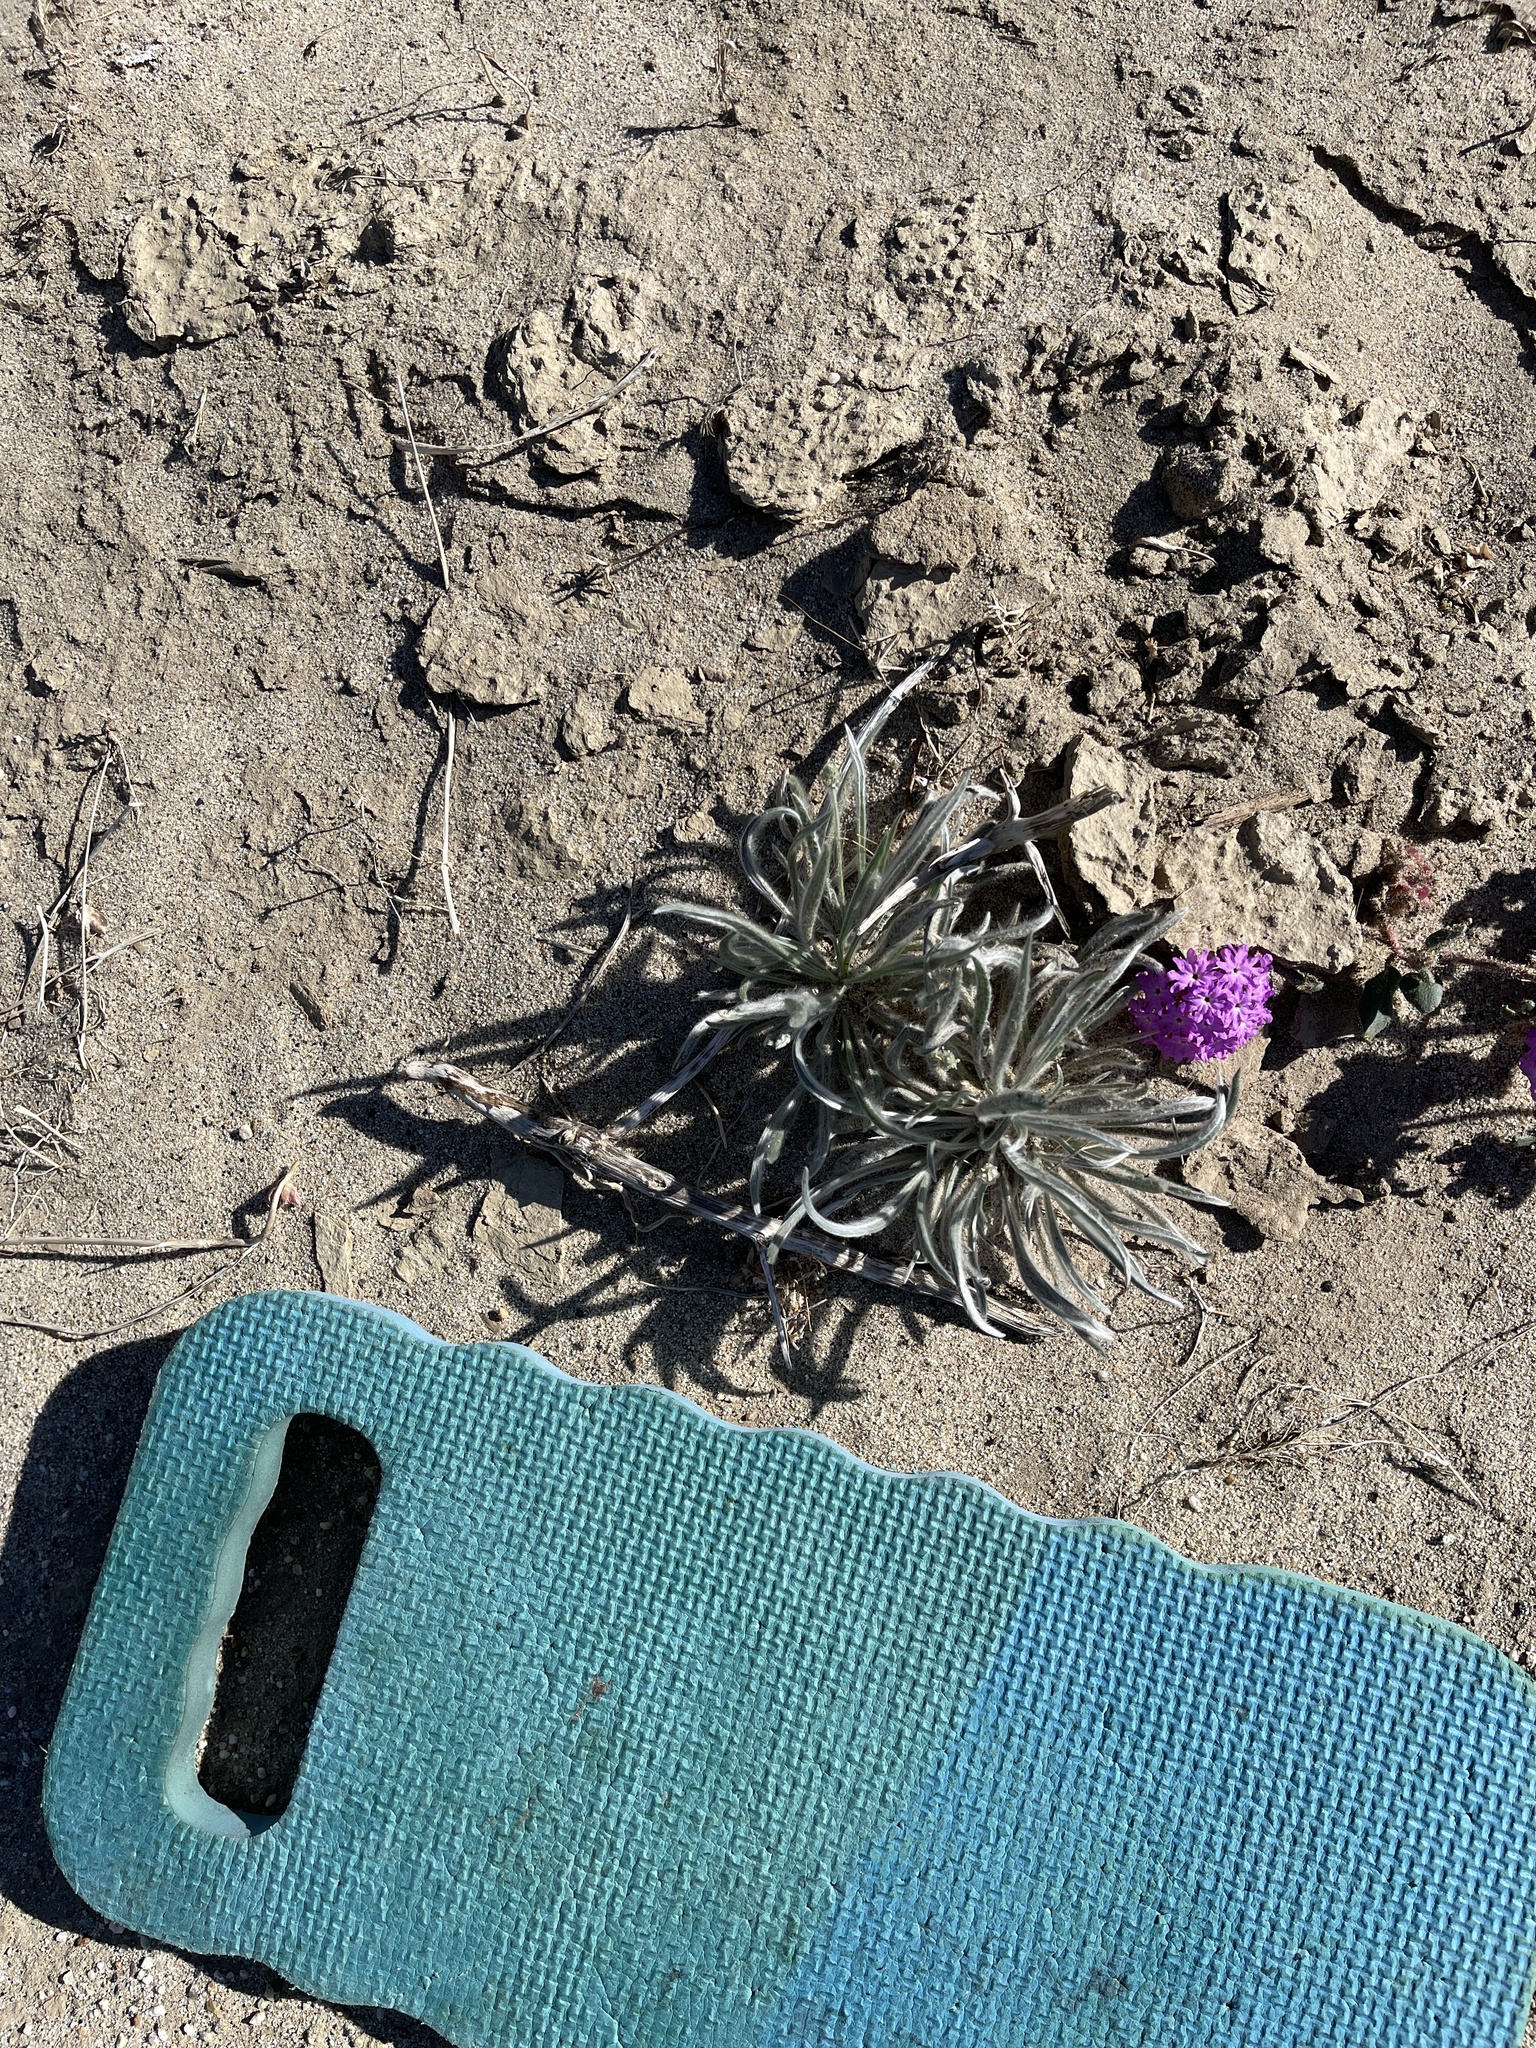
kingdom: Plantae
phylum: Tracheophyta
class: Magnoliopsida
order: Lamiales
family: Plantaginaceae
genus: Plantago
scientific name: Plantago ovata
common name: Blond plantain
